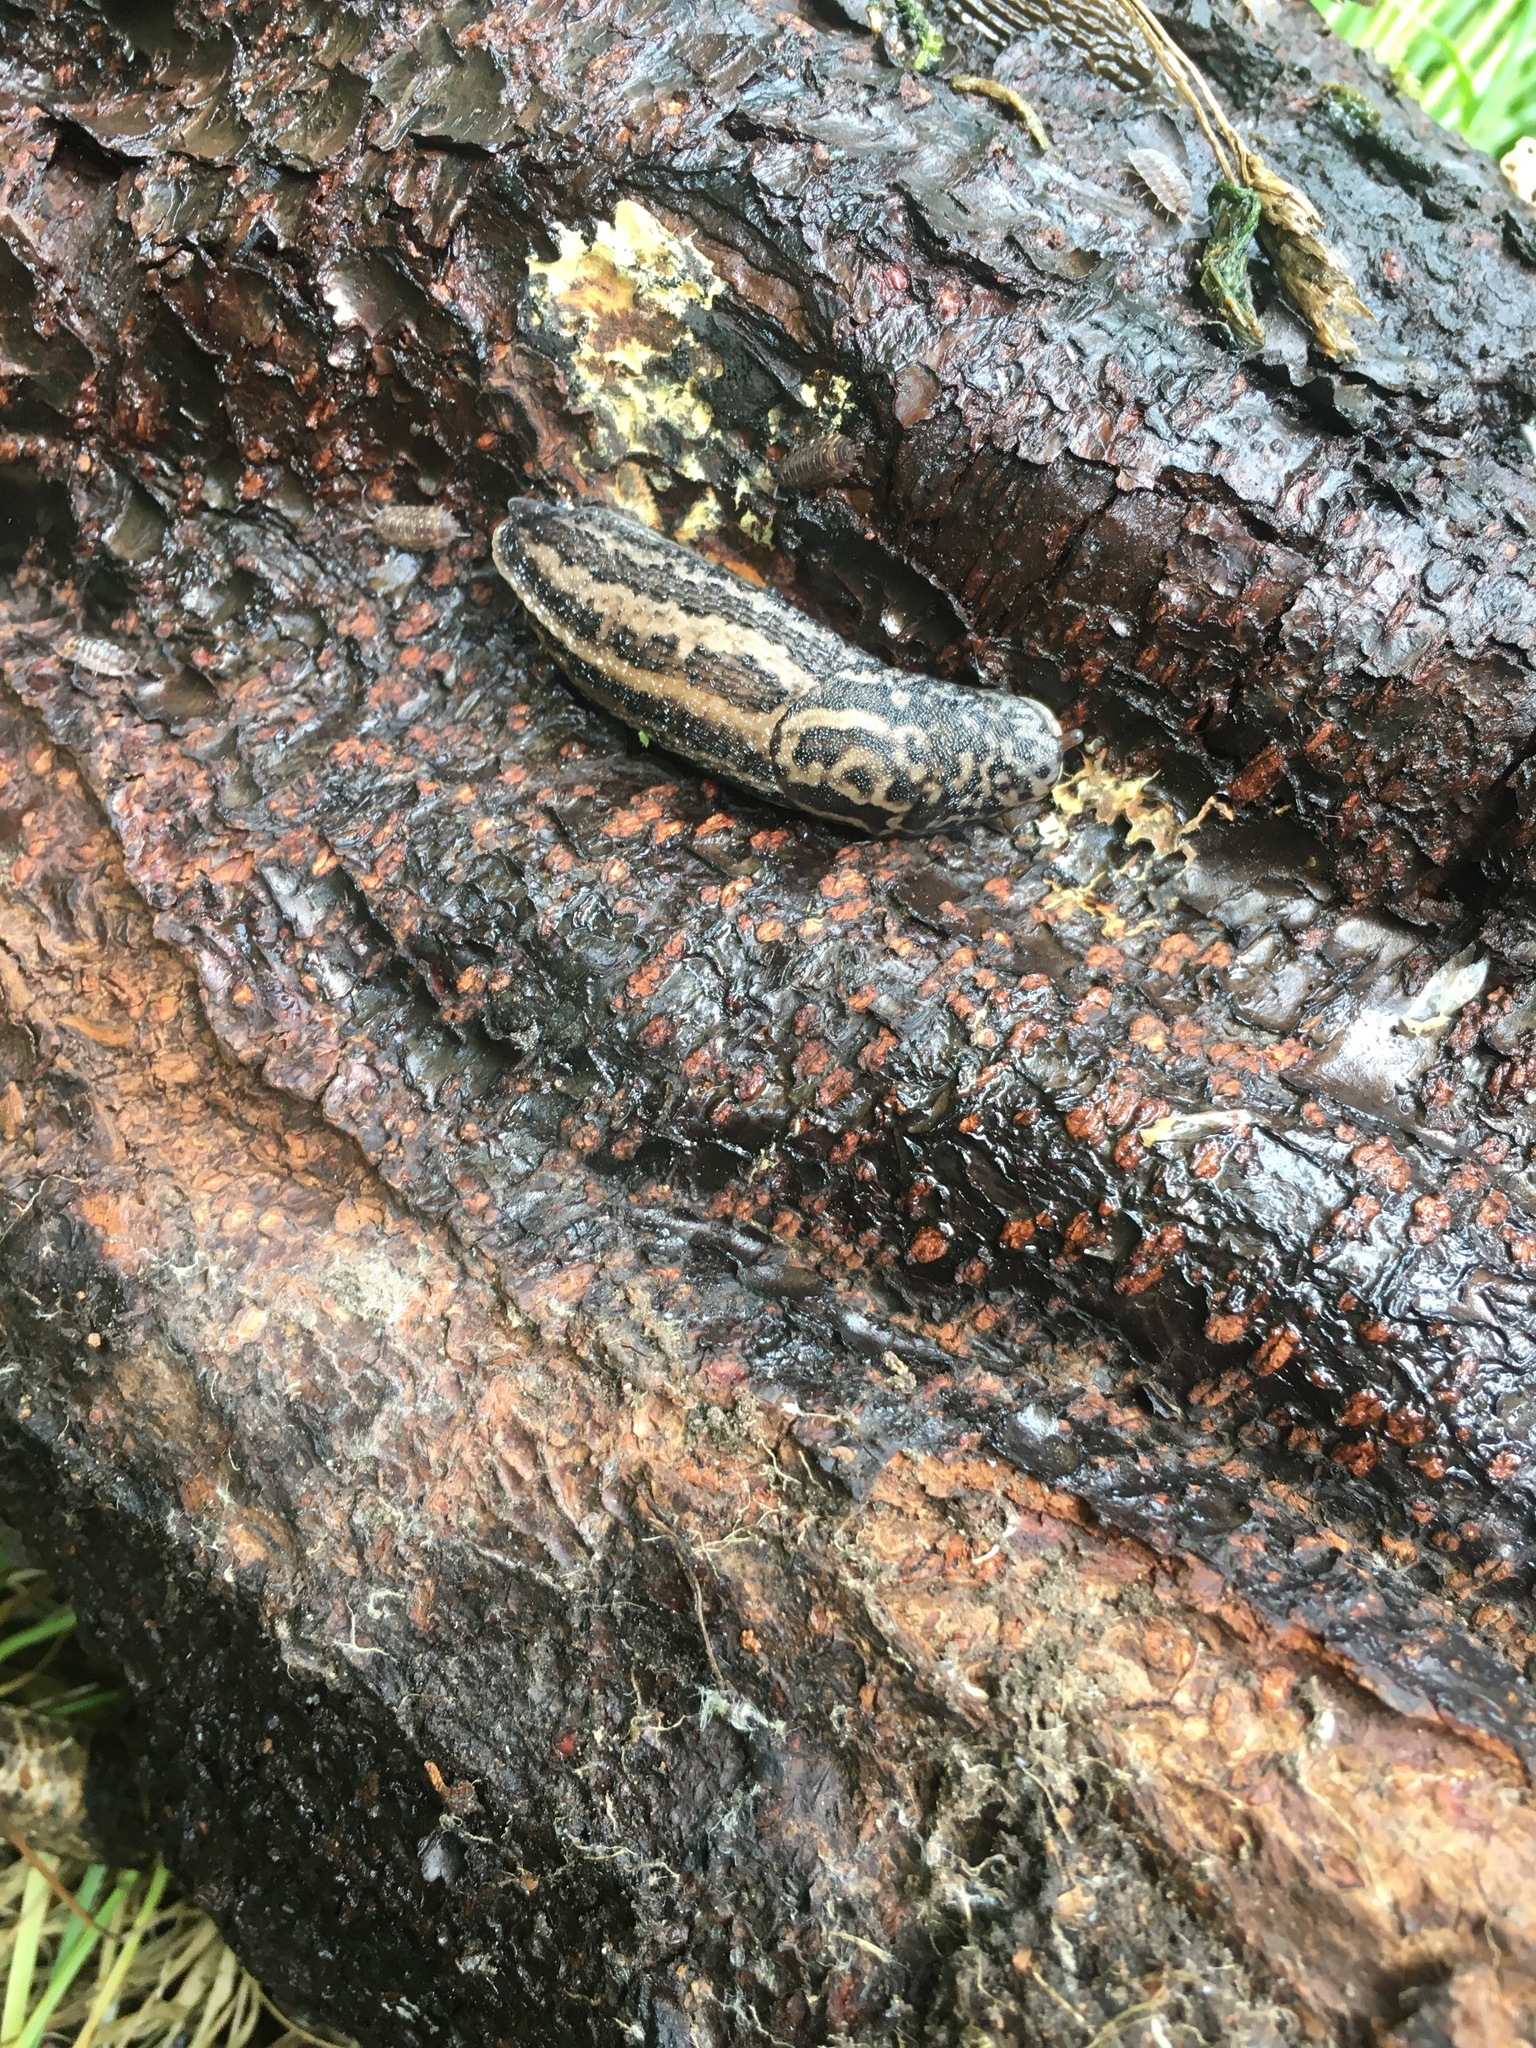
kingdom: Animalia
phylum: Mollusca
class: Gastropoda
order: Stylommatophora
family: Limacidae
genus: Limax
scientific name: Limax maximus
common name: Great grey slug
